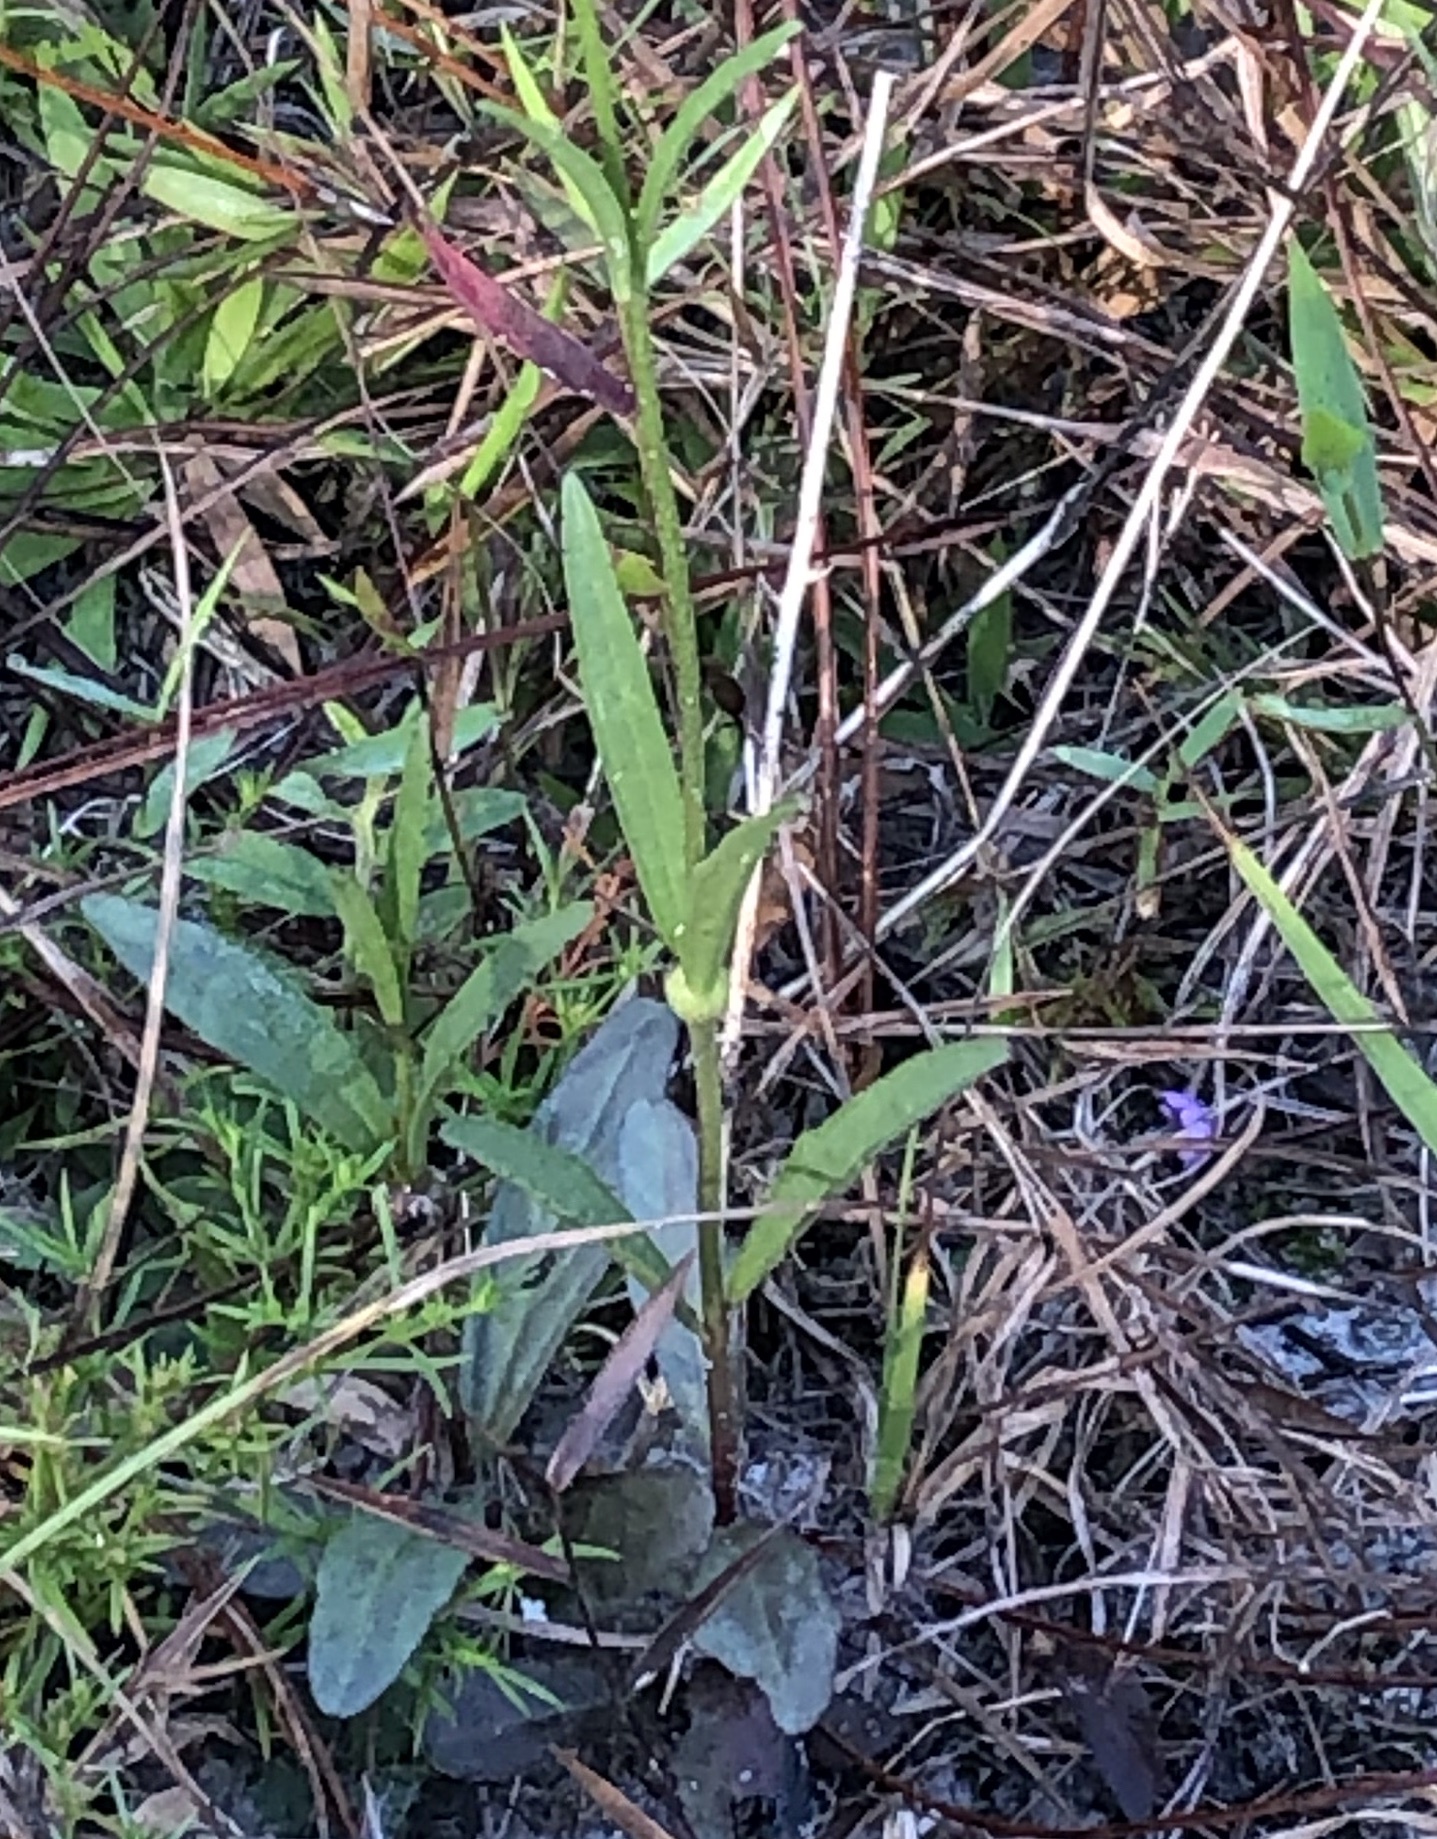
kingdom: Plantae
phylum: Tracheophyta
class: Magnoliopsida
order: Lamiales
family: Orobanchaceae
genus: Buchnera
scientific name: Buchnera floridana
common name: Florida bluehearts
